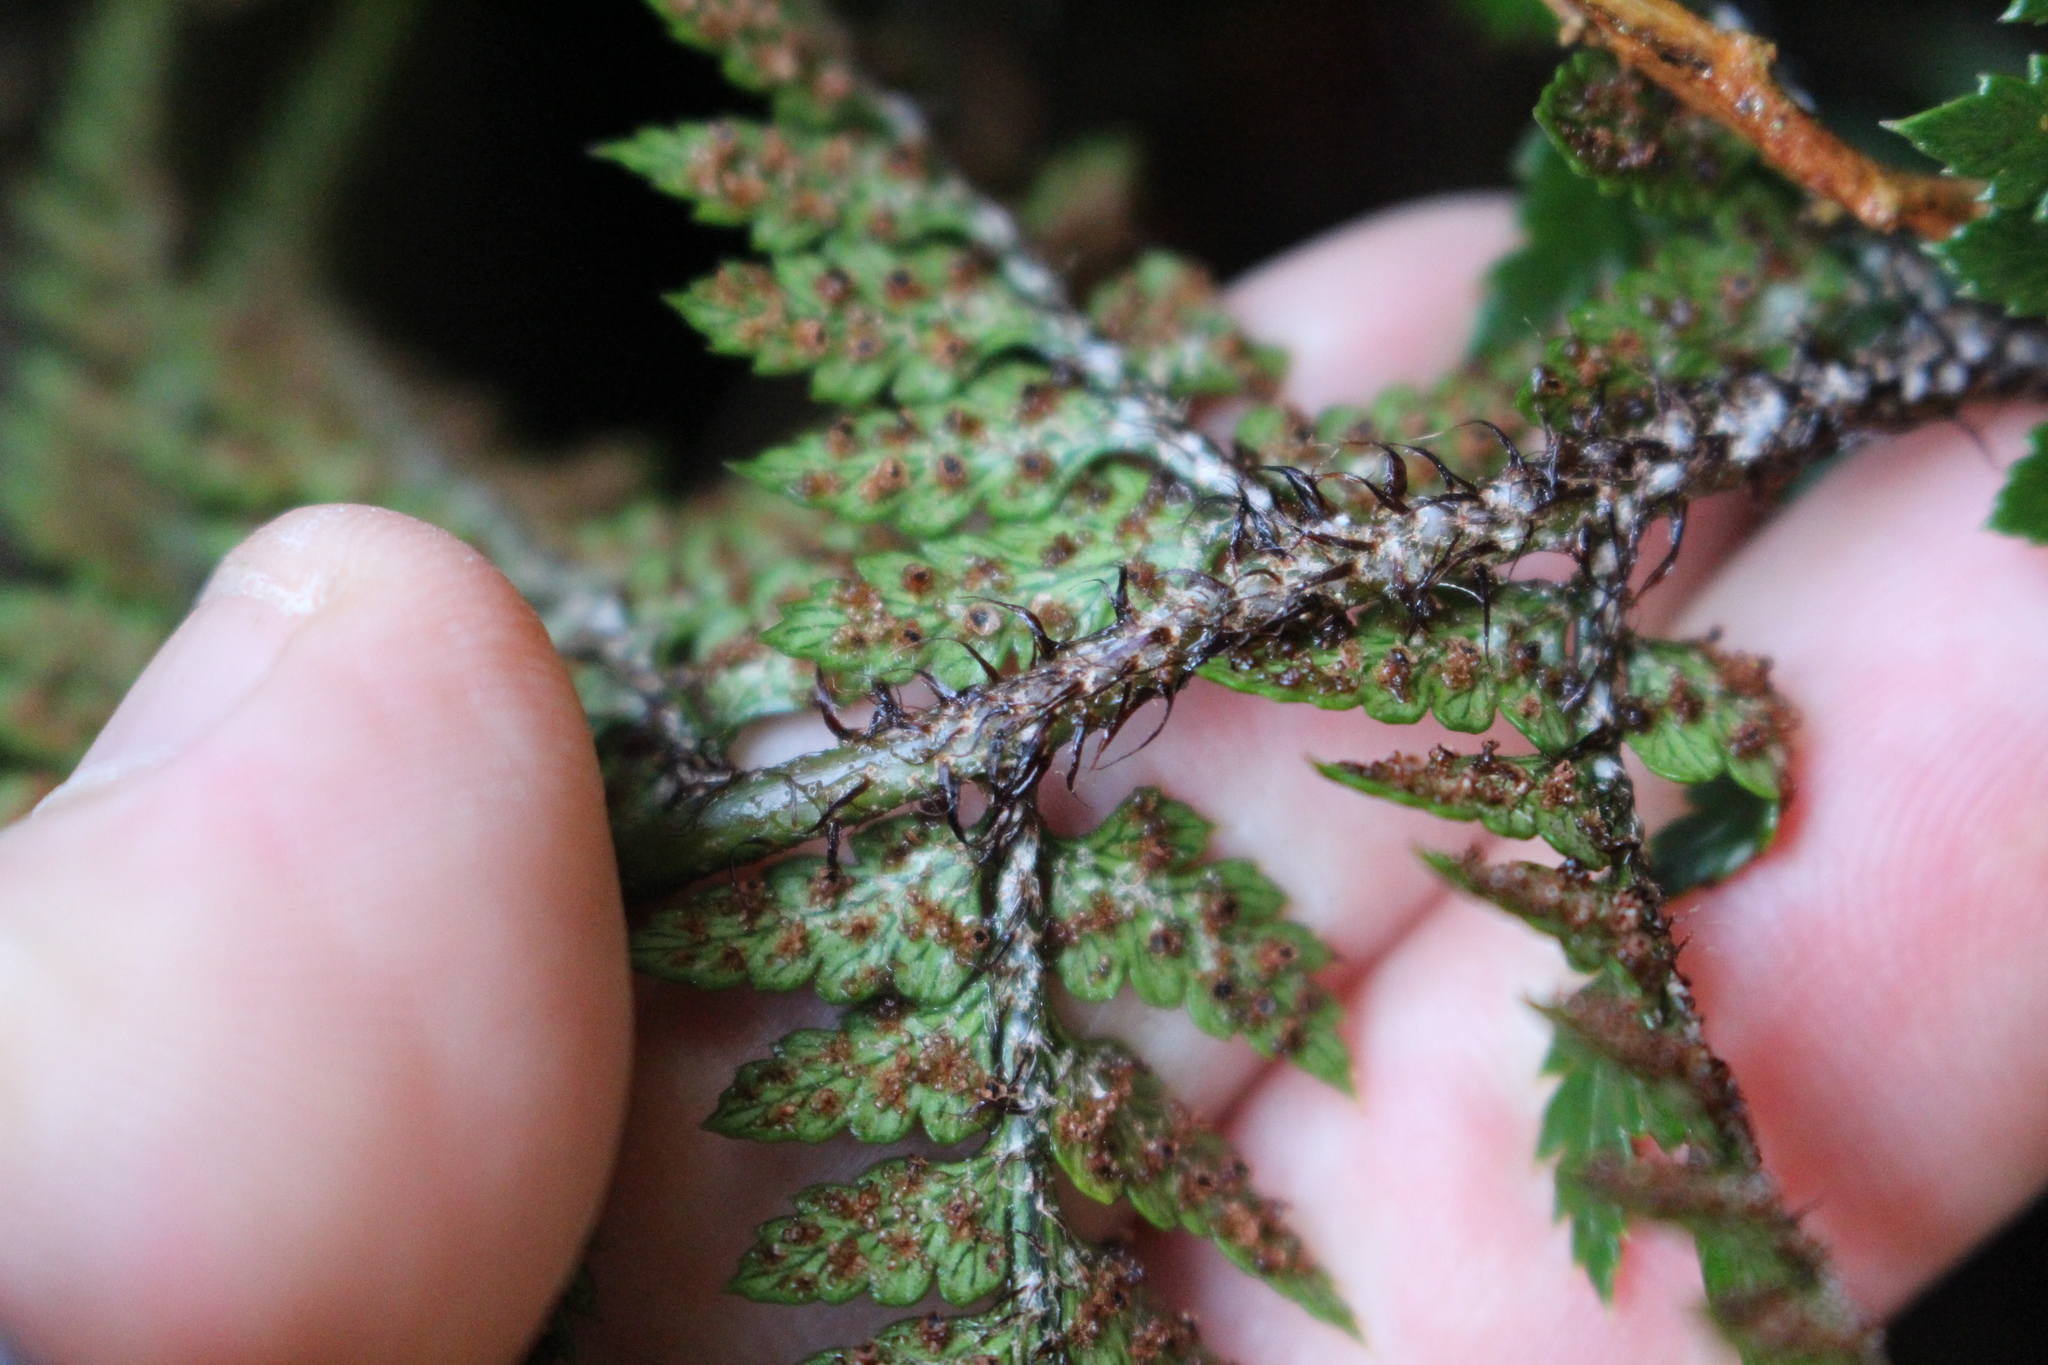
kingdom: Plantae
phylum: Tracheophyta
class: Polypodiopsida
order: Polypodiales
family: Dryopteridaceae
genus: Polystichum
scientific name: Polystichum neozelandicum
